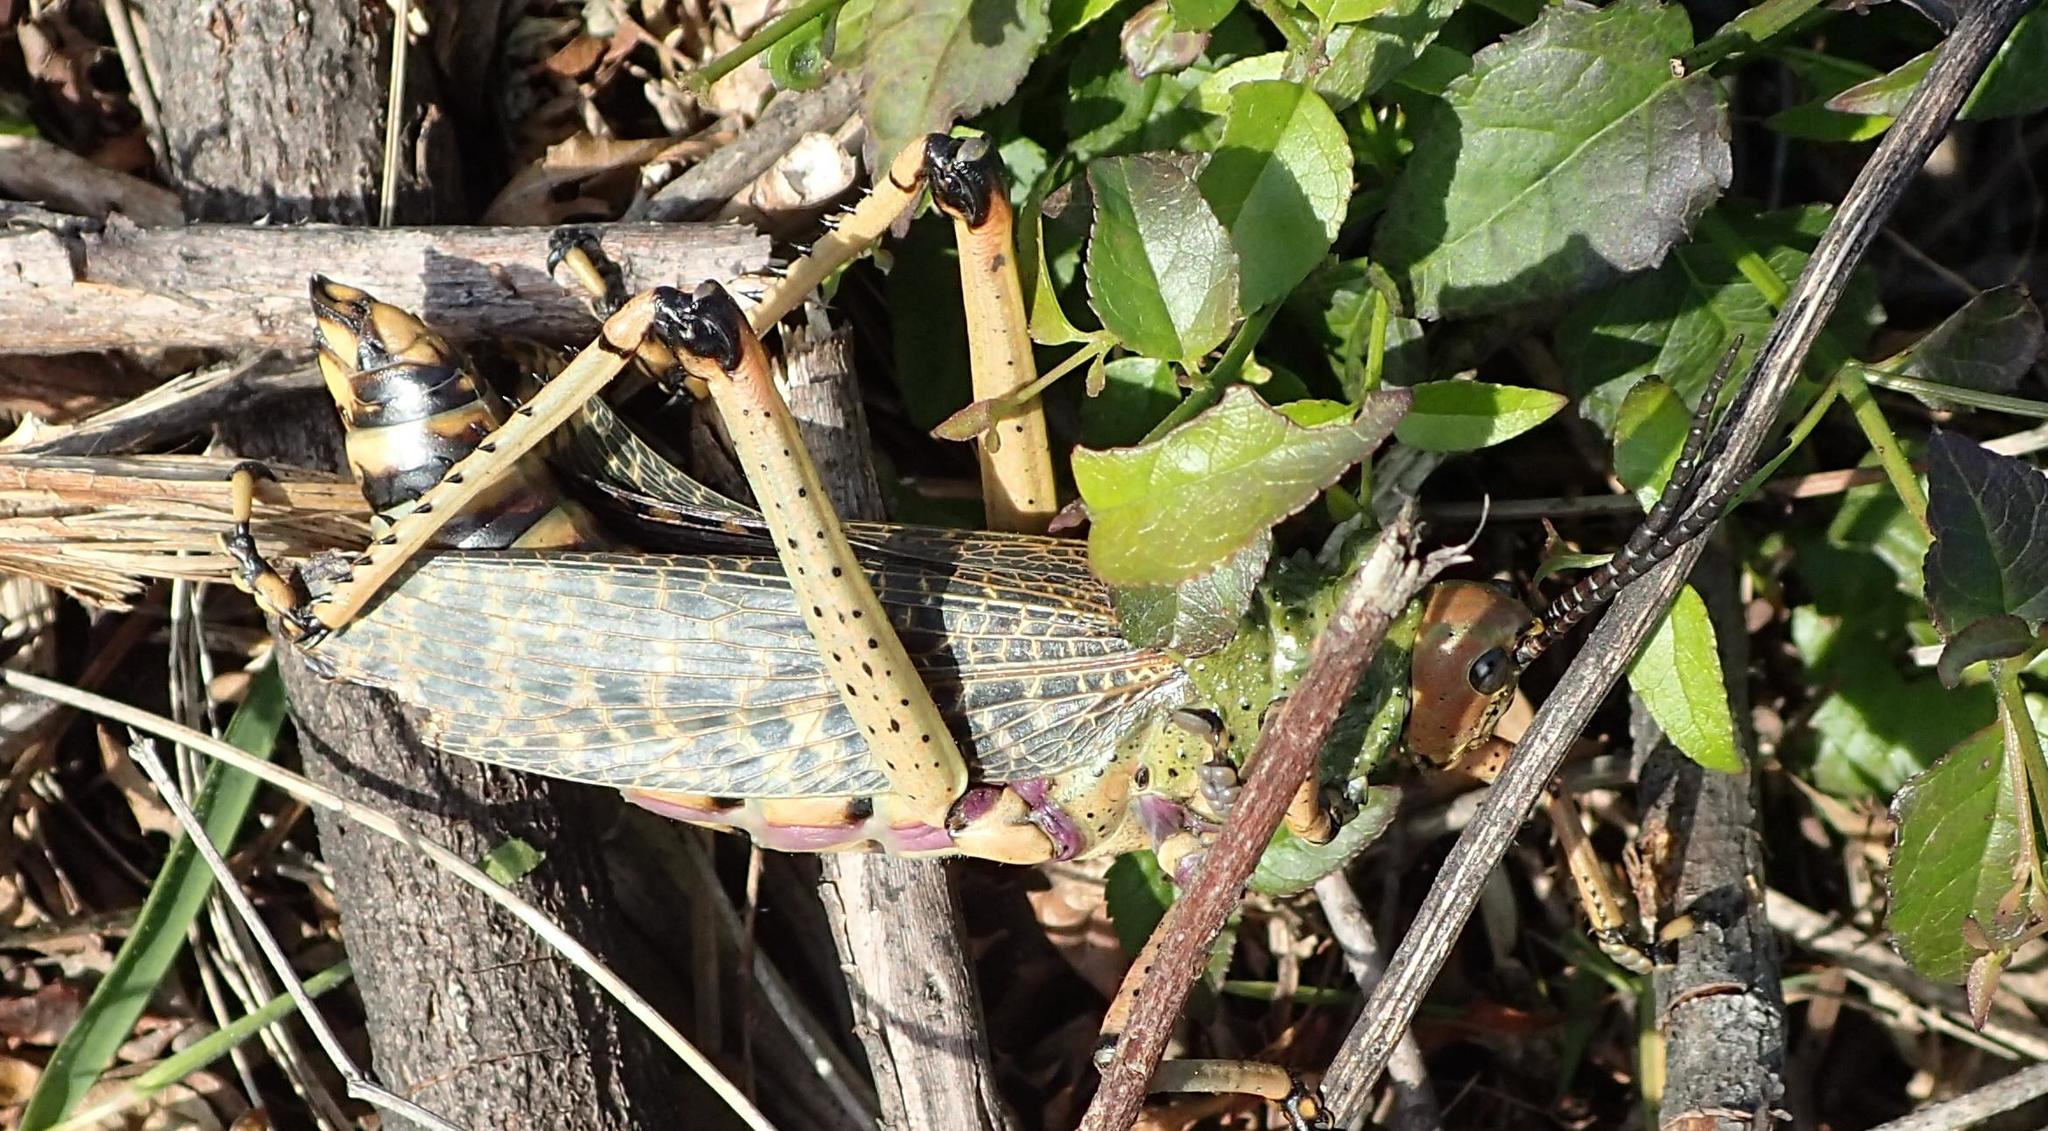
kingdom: Animalia
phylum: Arthropoda
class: Insecta
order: Orthoptera
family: Pyrgomorphidae
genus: Phymateus
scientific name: Phymateus leprosus
